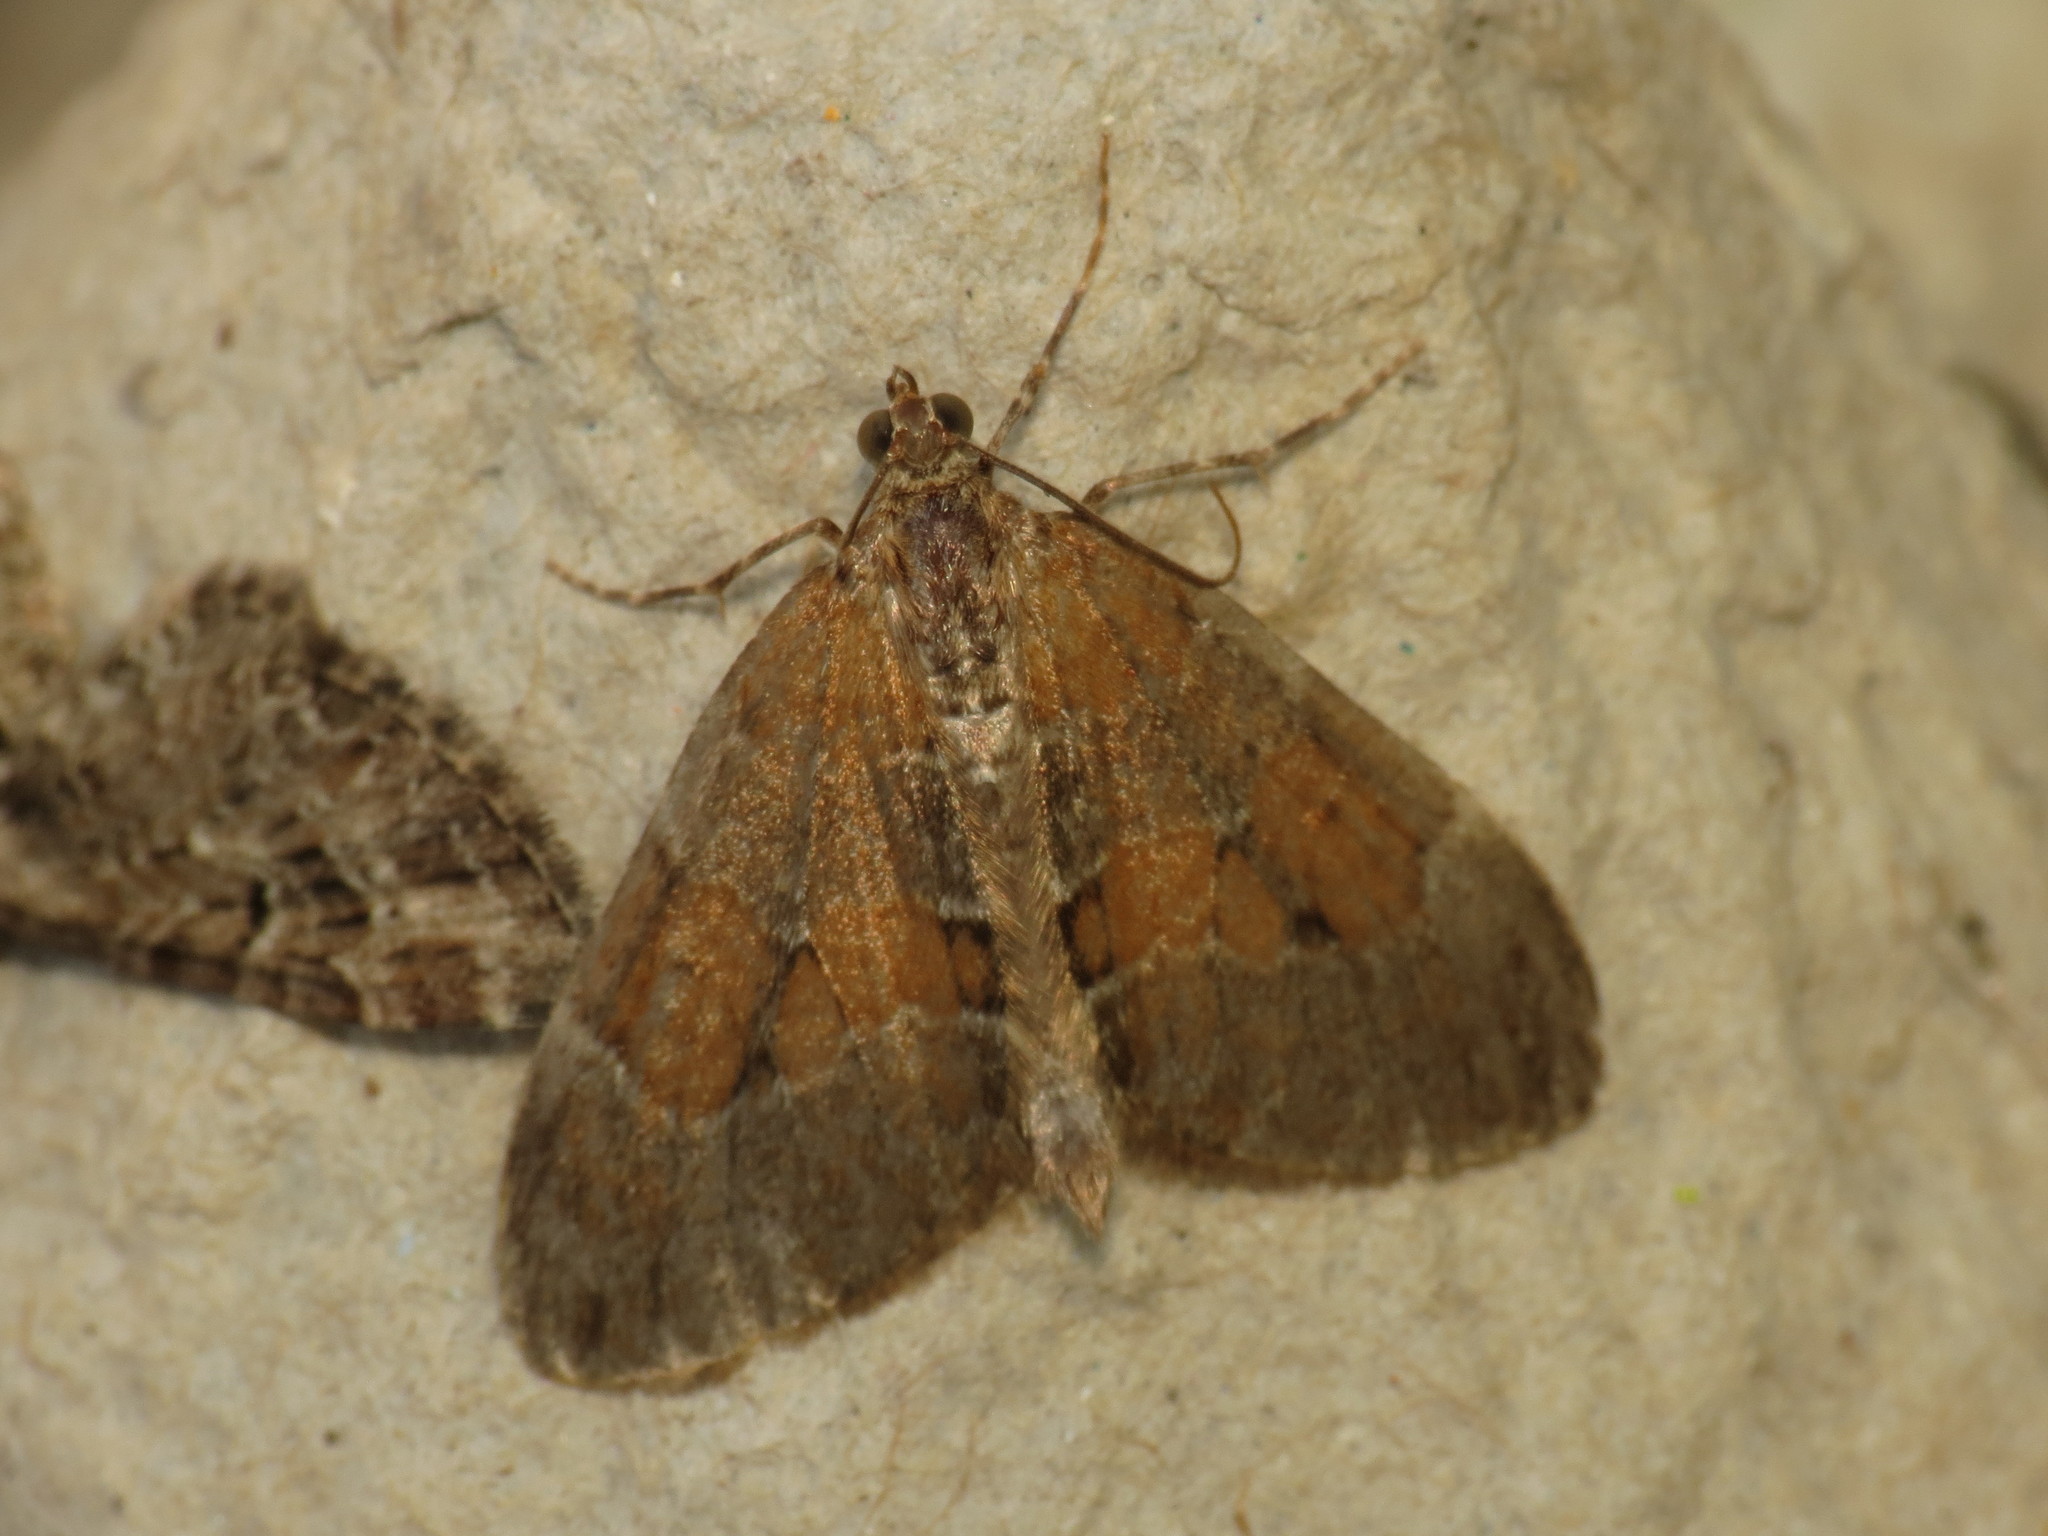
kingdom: Animalia
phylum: Arthropoda
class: Insecta
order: Lepidoptera
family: Geometridae
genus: Thera
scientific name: Thera obeliscata
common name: Grey pine carpet
